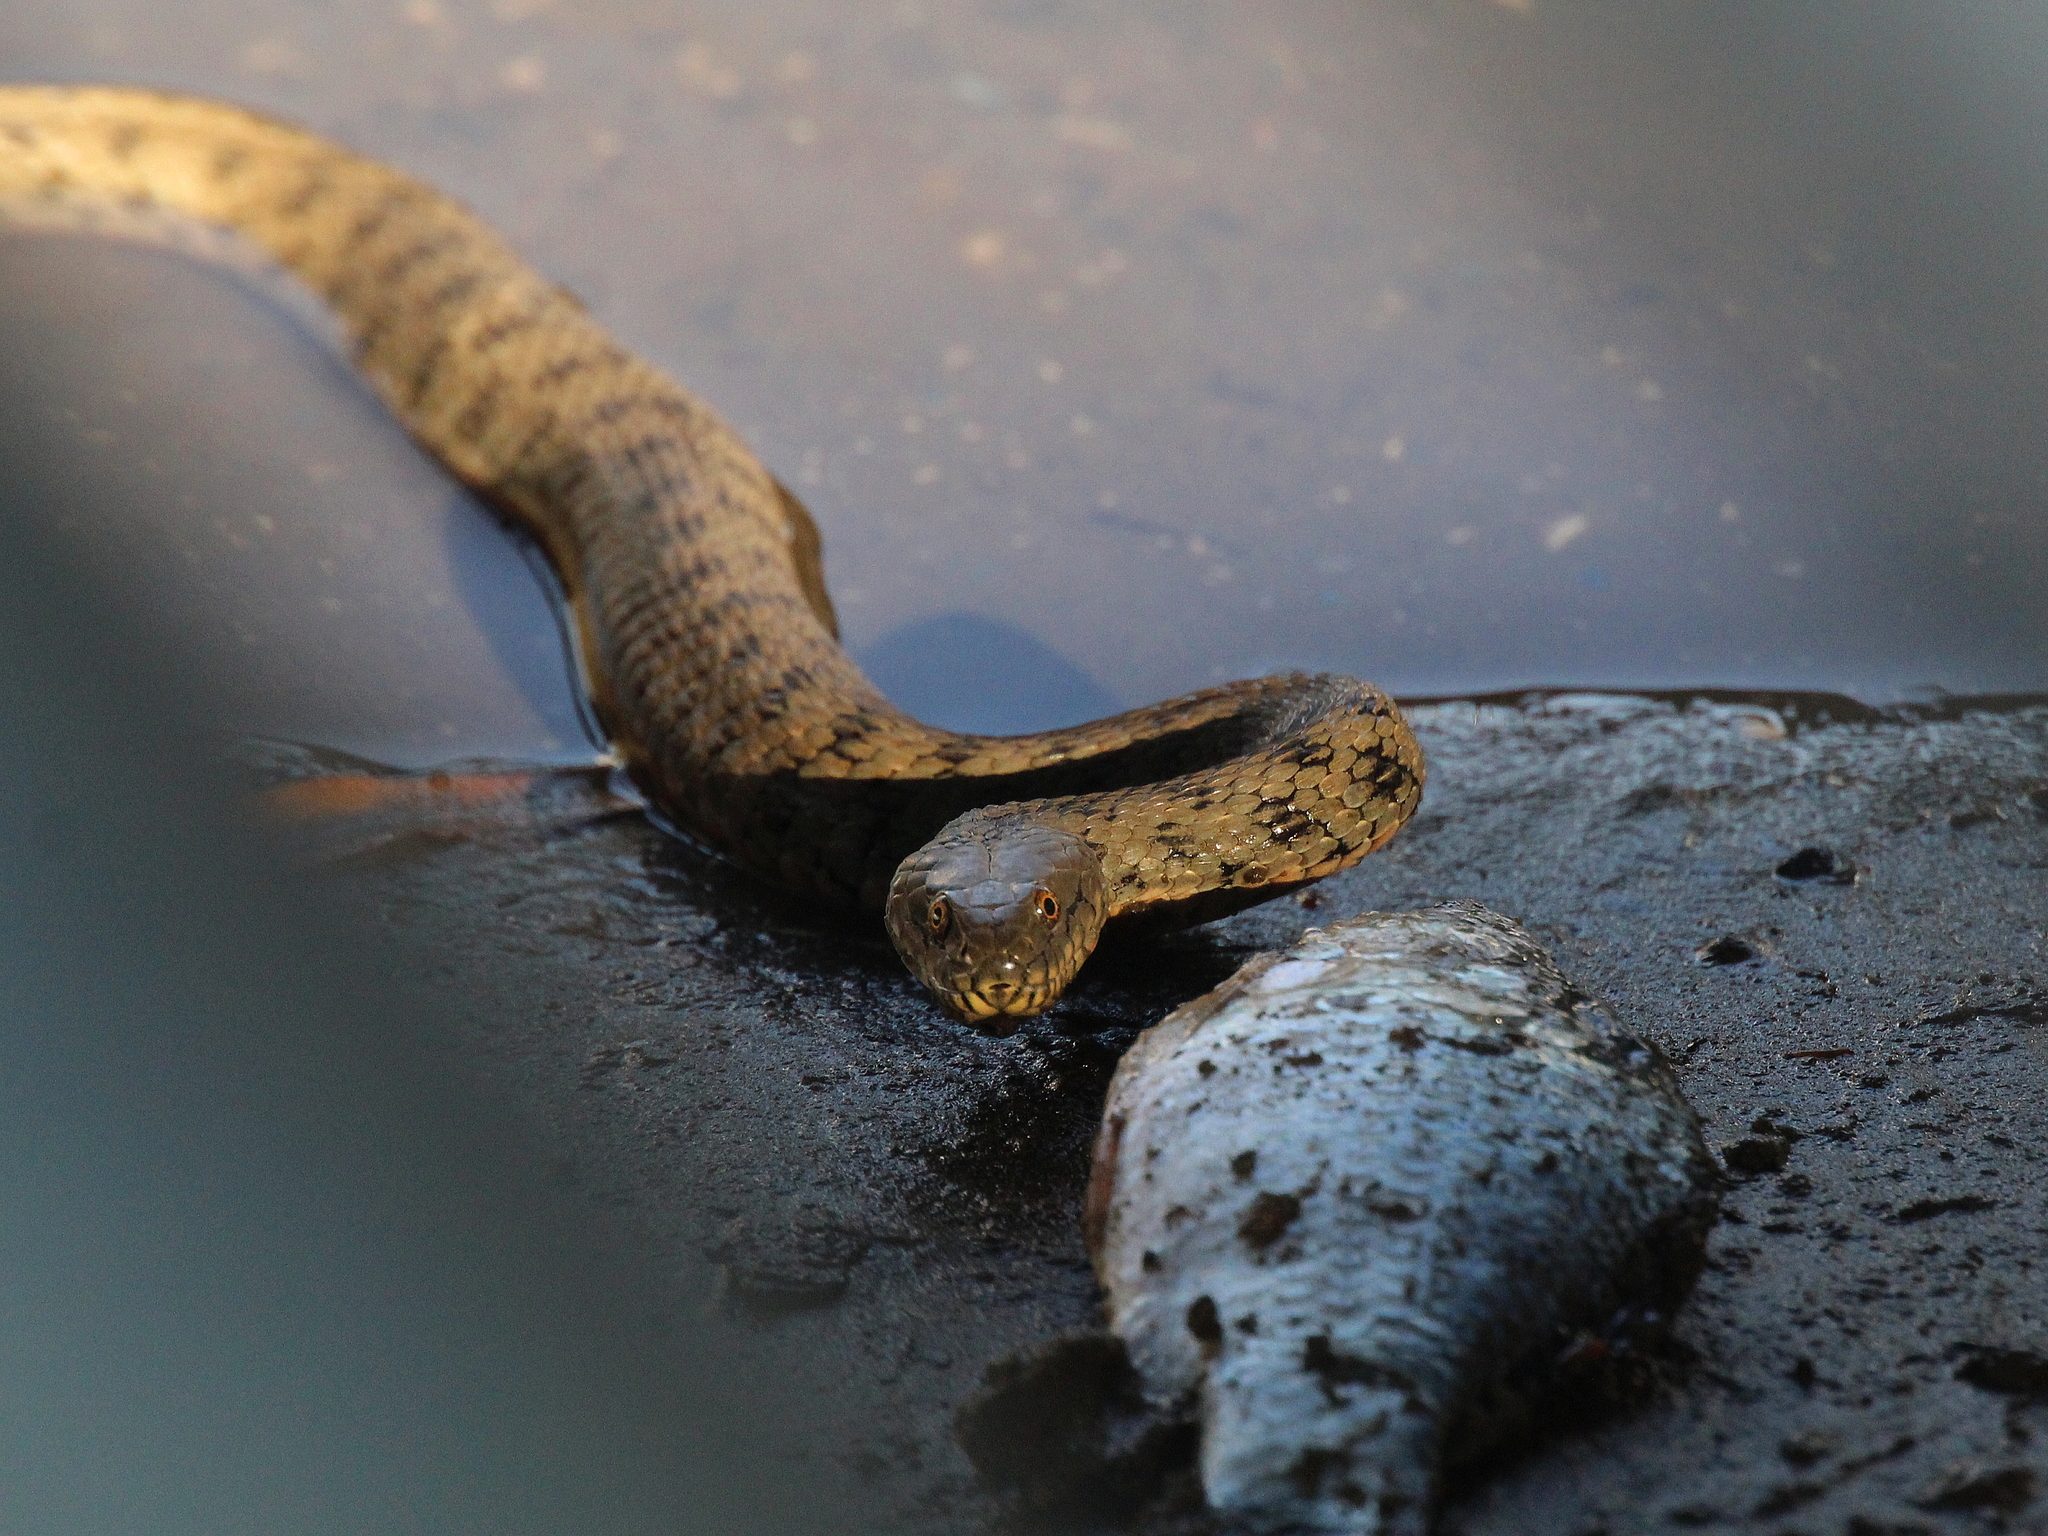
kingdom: Animalia
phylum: Chordata
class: Squamata
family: Colubridae
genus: Natrix
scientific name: Natrix tessellata
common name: Dice snake
